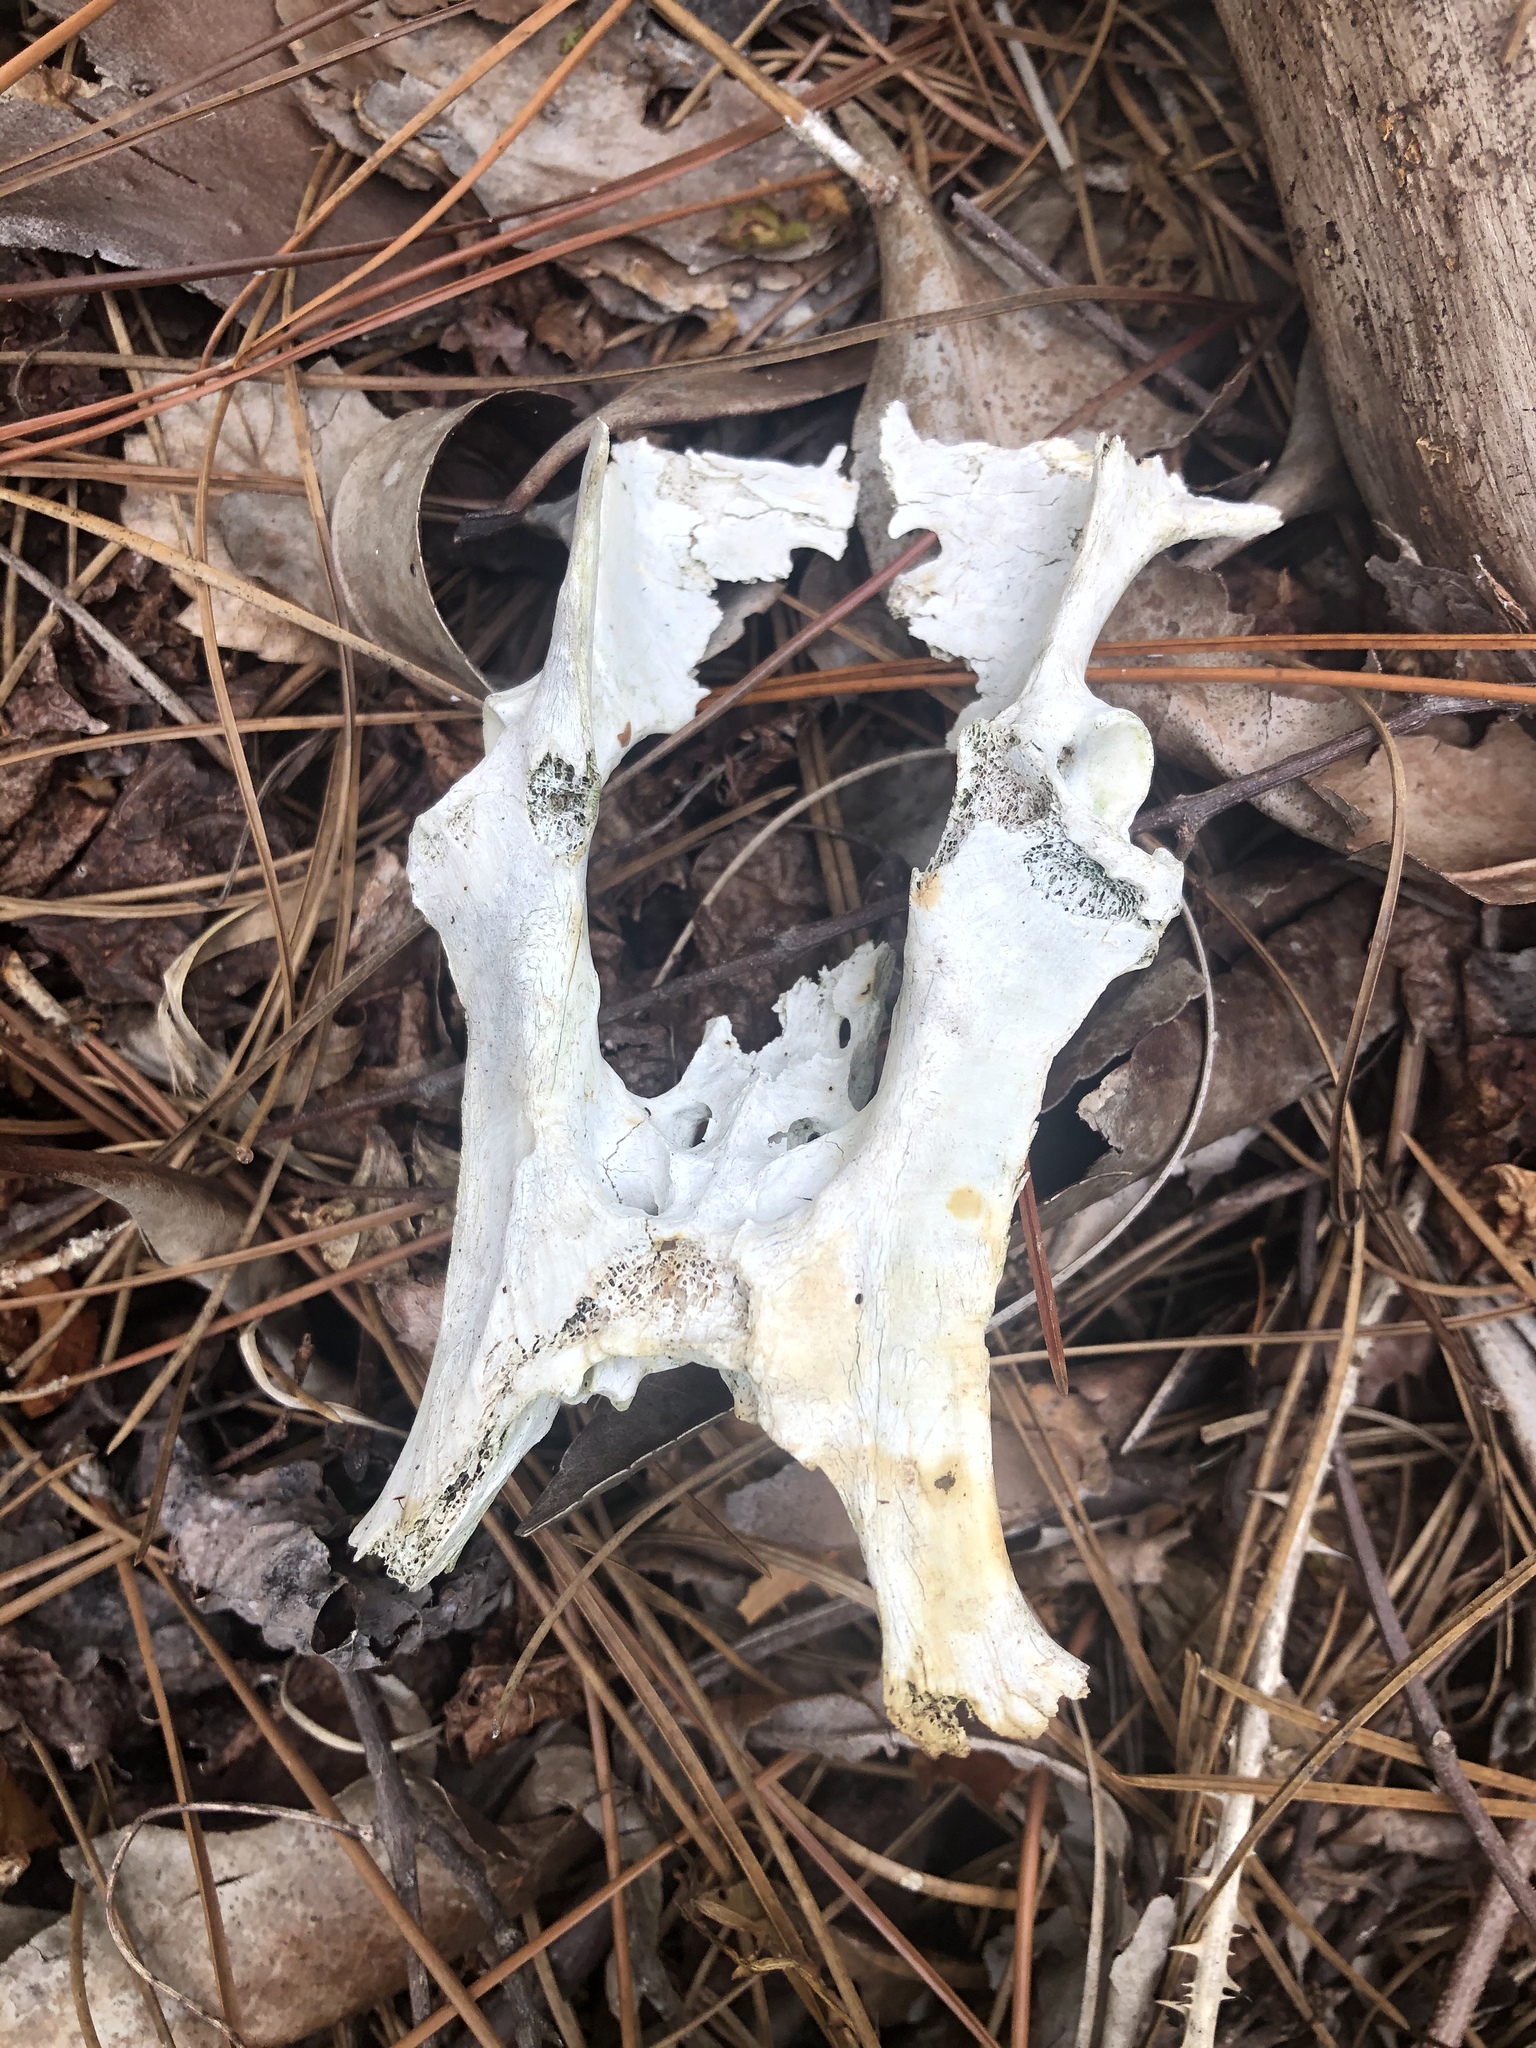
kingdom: Animalia
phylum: Chordata
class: Mammalia
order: Cingulata
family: Dasypodidae
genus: Dasypus
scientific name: Dasypus novemcinctus
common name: Nine-banded armadillo
